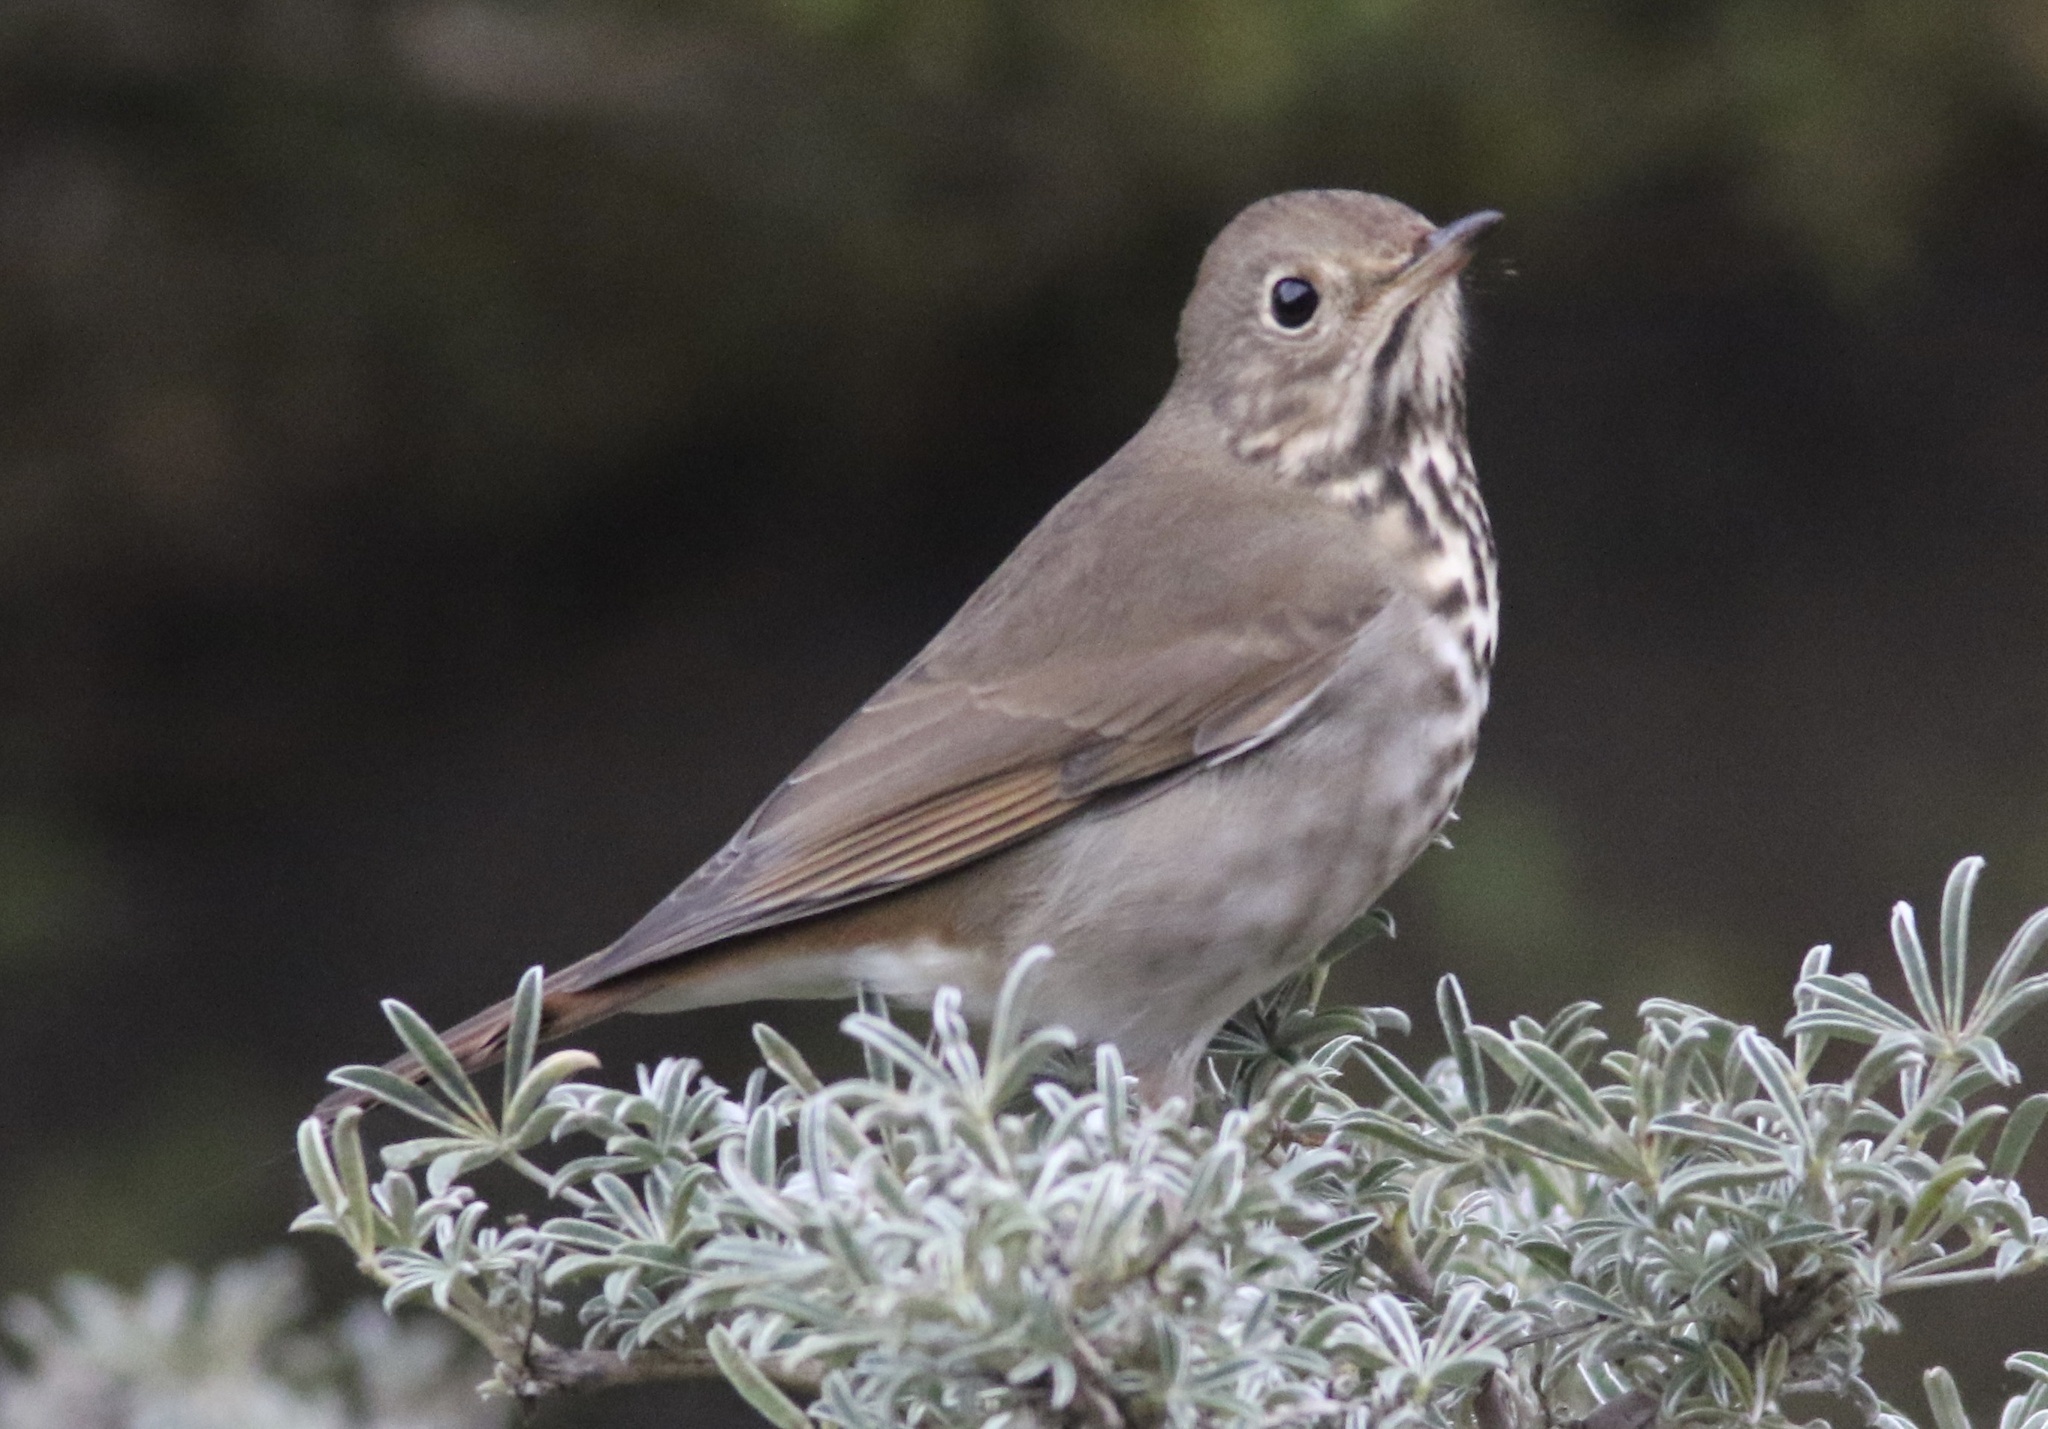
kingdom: Animalia
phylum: Chordata
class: Aves
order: Passeriformes
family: Turdidae
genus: Catharus
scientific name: Catharus guttatus
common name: Hermit thrush
